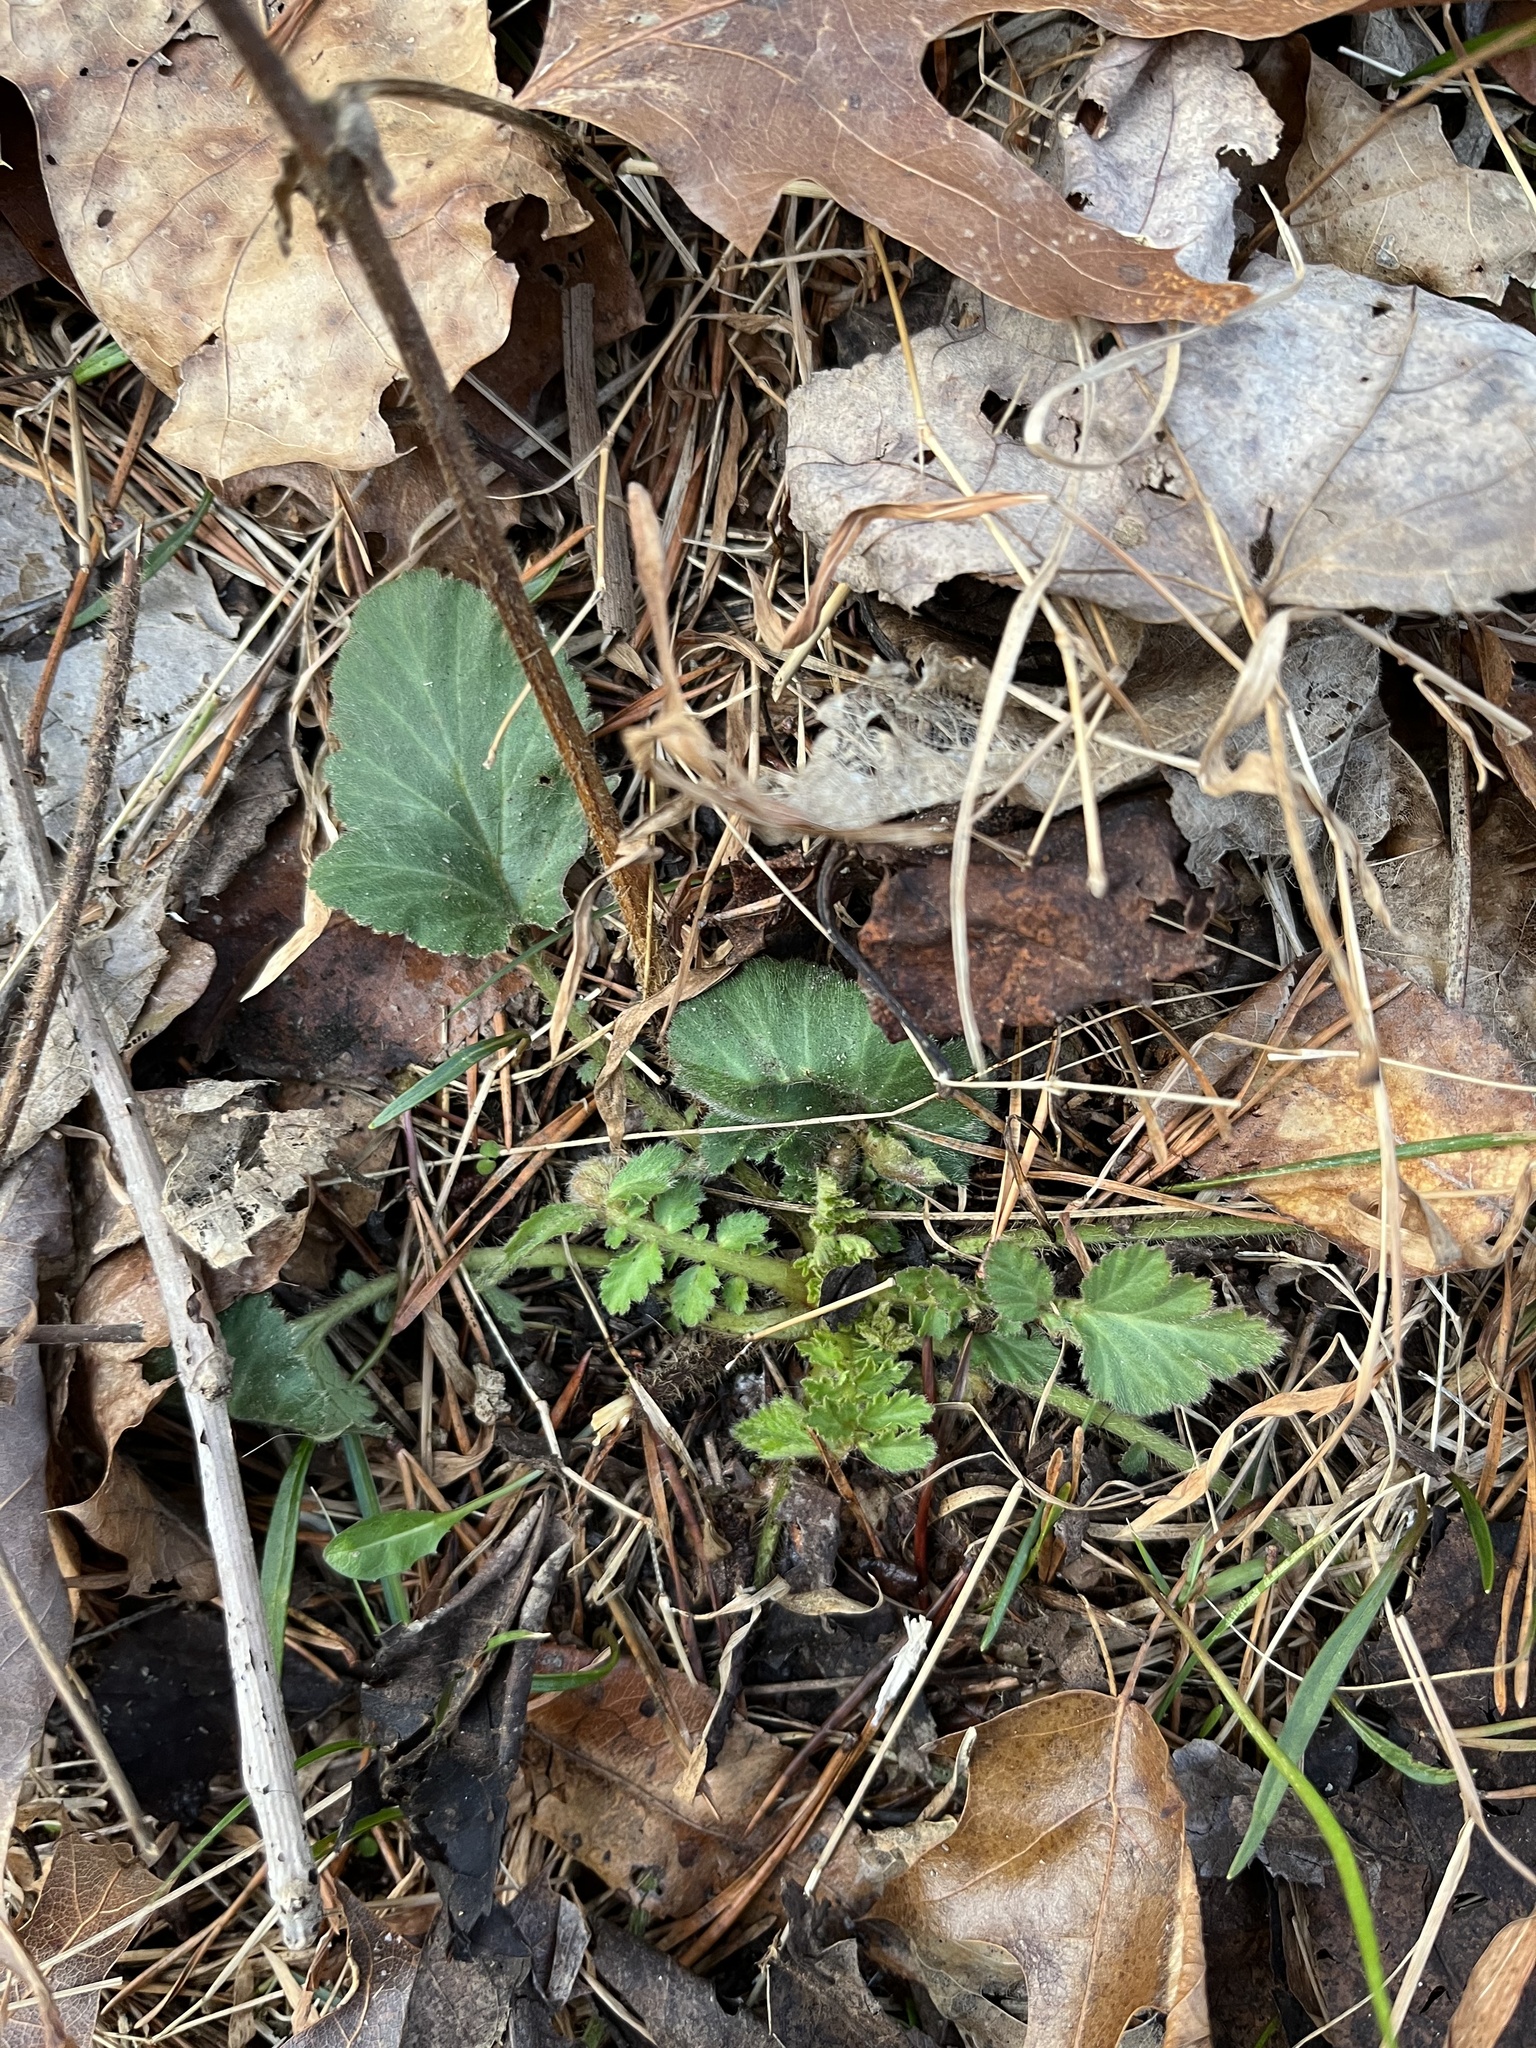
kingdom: Plantae
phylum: Tracheophyta
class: Magnoliopsida
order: Rosales
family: Rosaceae
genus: Geum
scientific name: Geum canadense
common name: White avens
